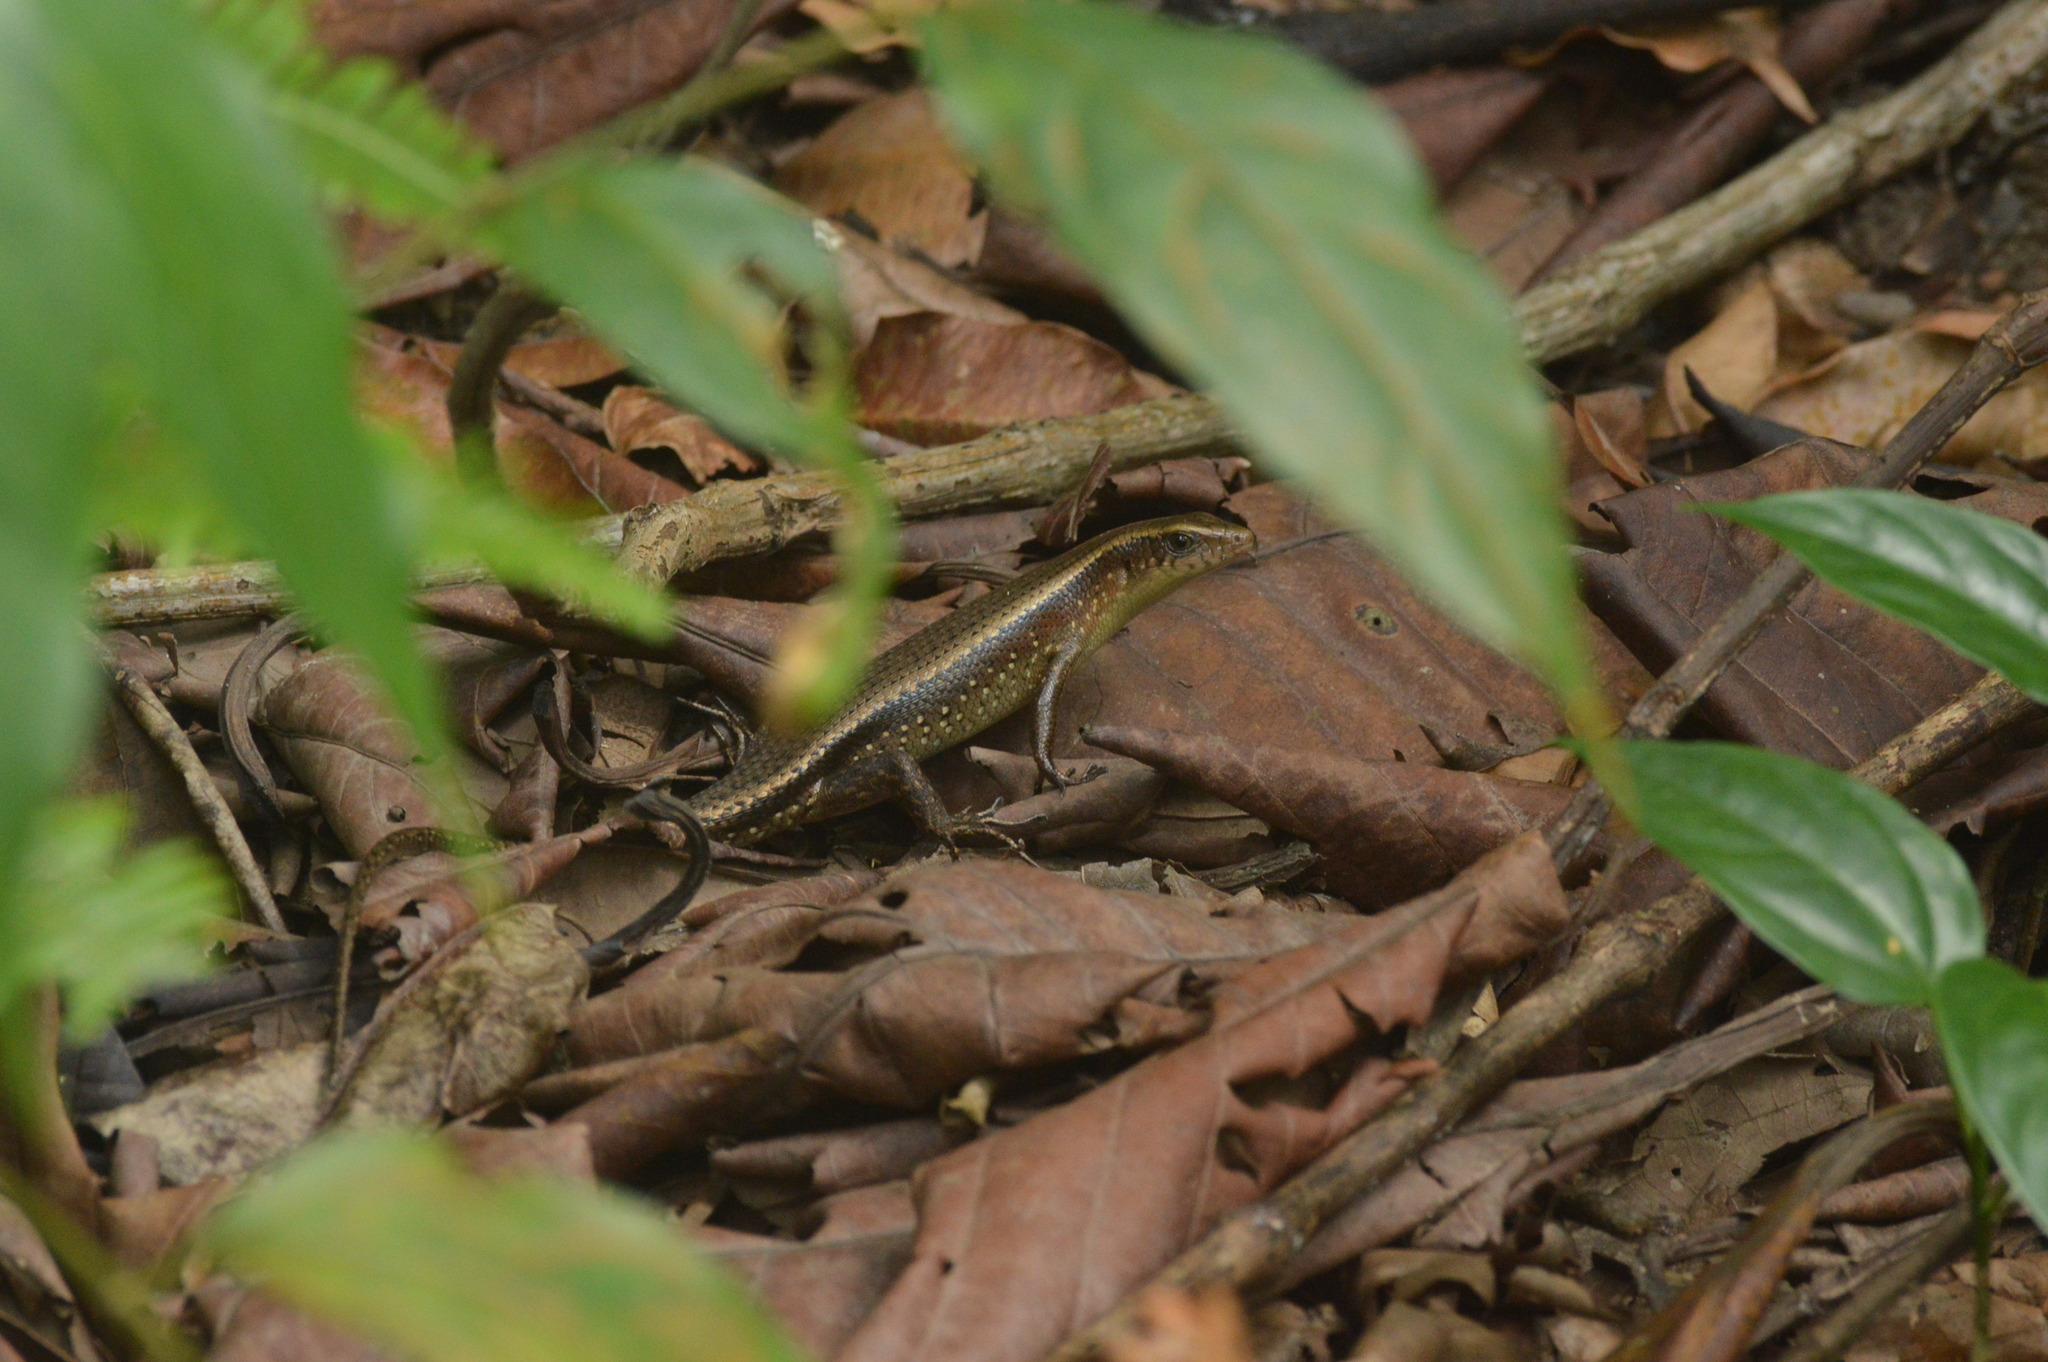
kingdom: Animalia
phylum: Chordata
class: Squamata
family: Scincidae
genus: Eutropis
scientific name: Eutropis multifasciata
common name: Common mabuya
